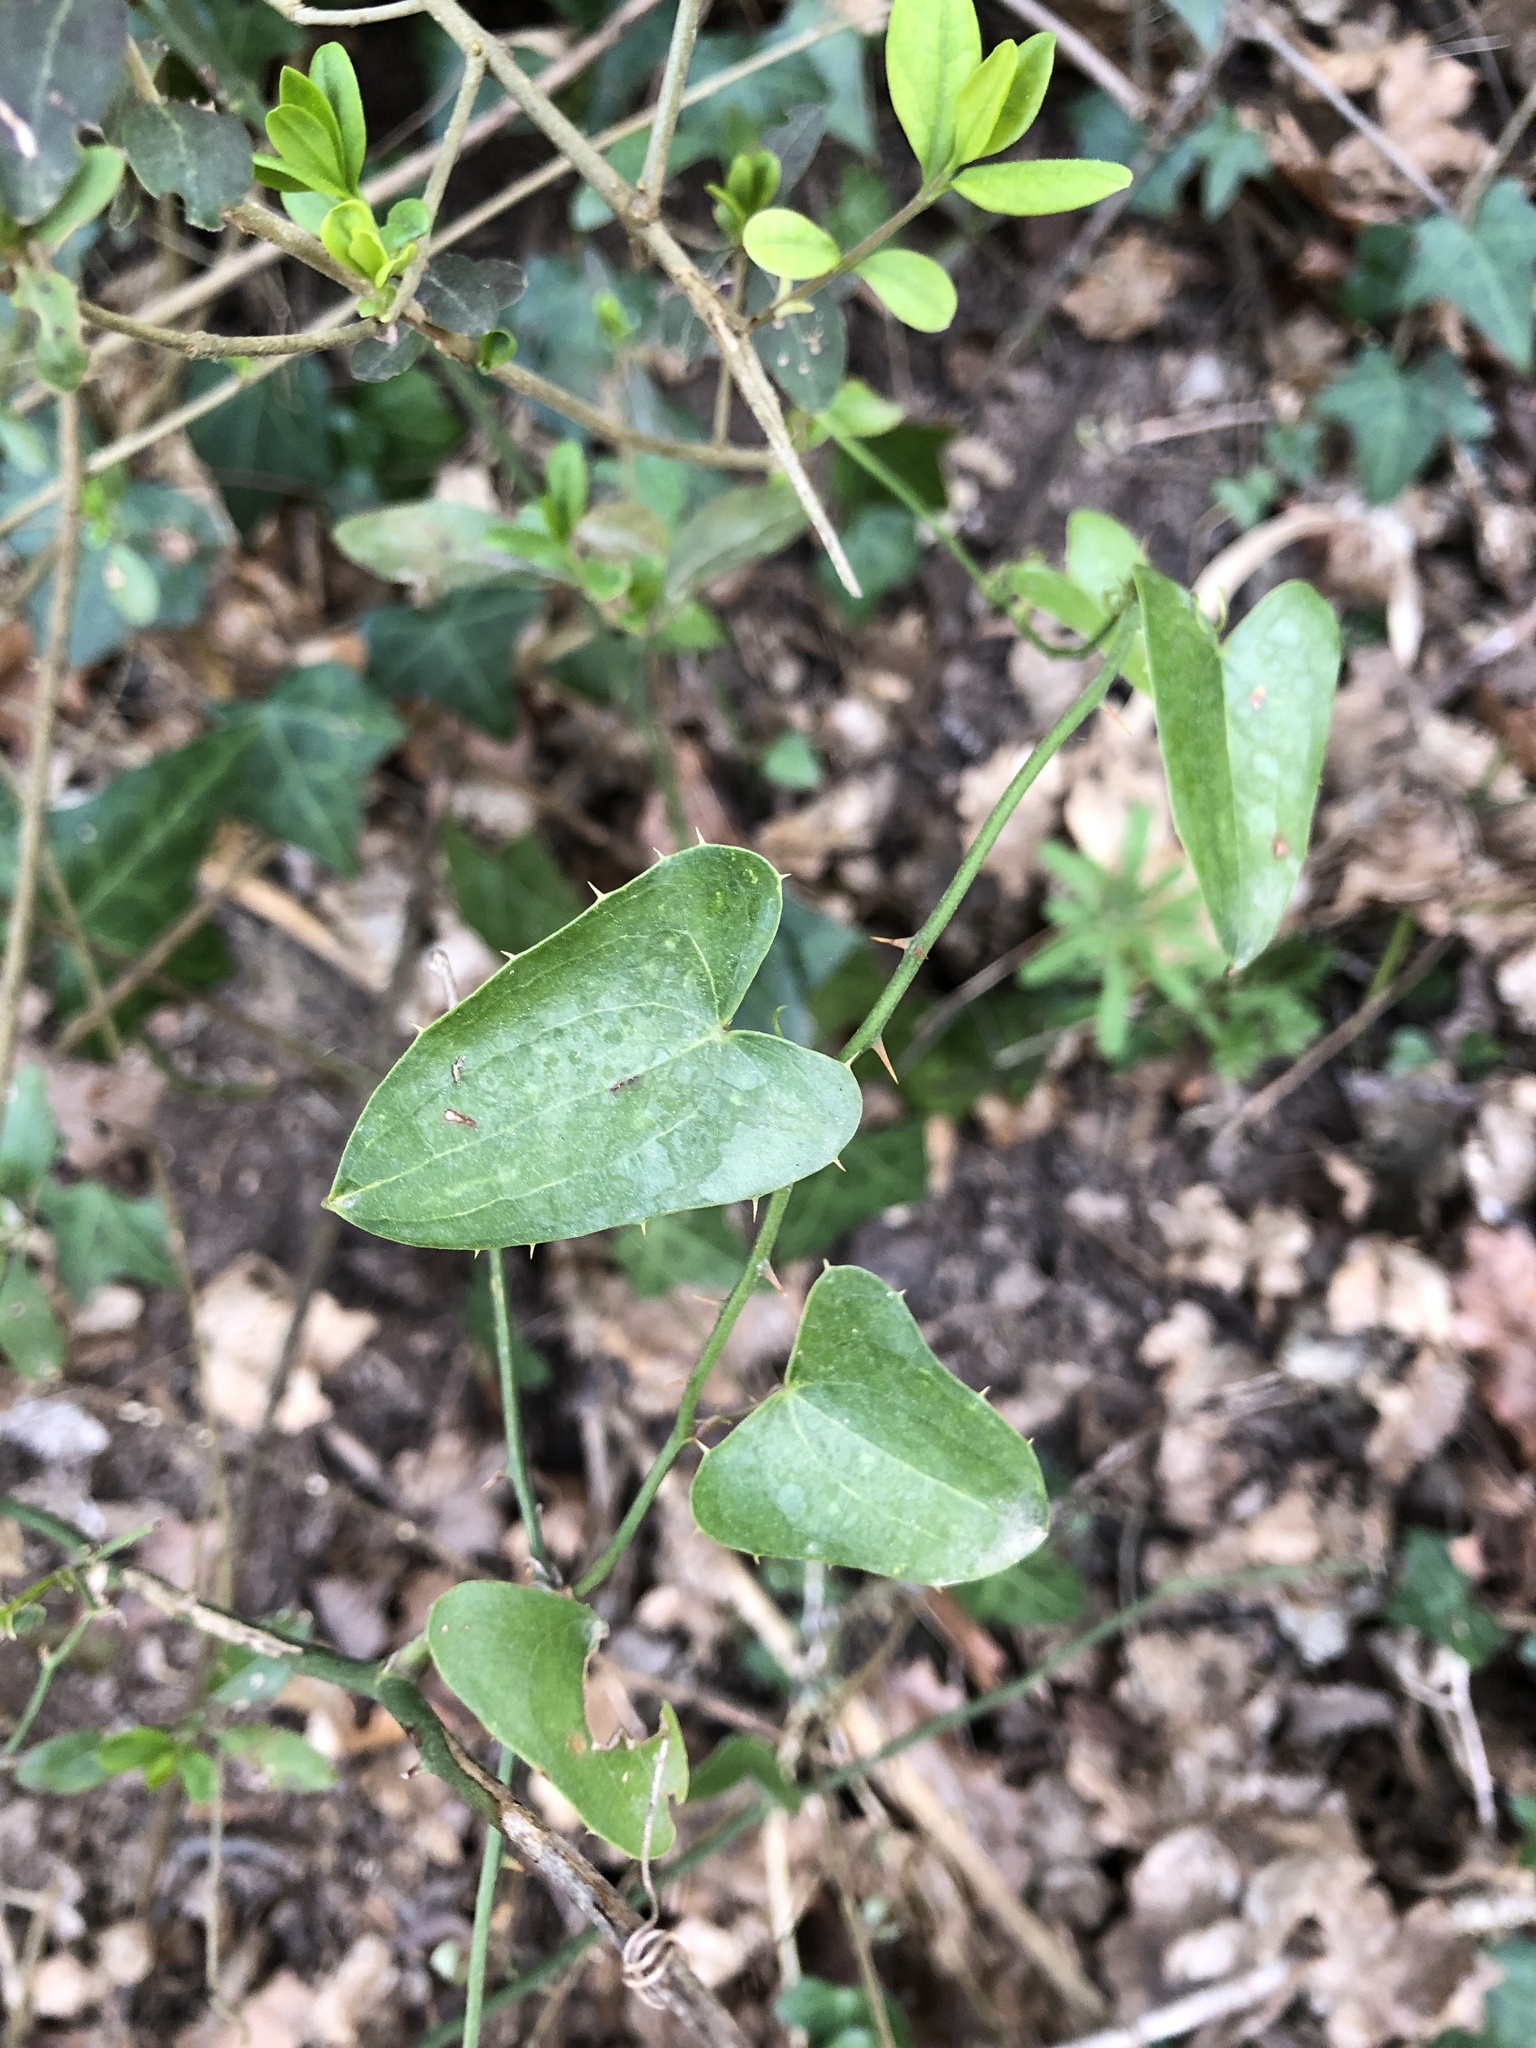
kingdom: Plantae
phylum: Tracheophyta
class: Liliopsida
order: Liliales
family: Smilacaceae
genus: Smilax
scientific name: Smilax aspera
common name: Common smilax
